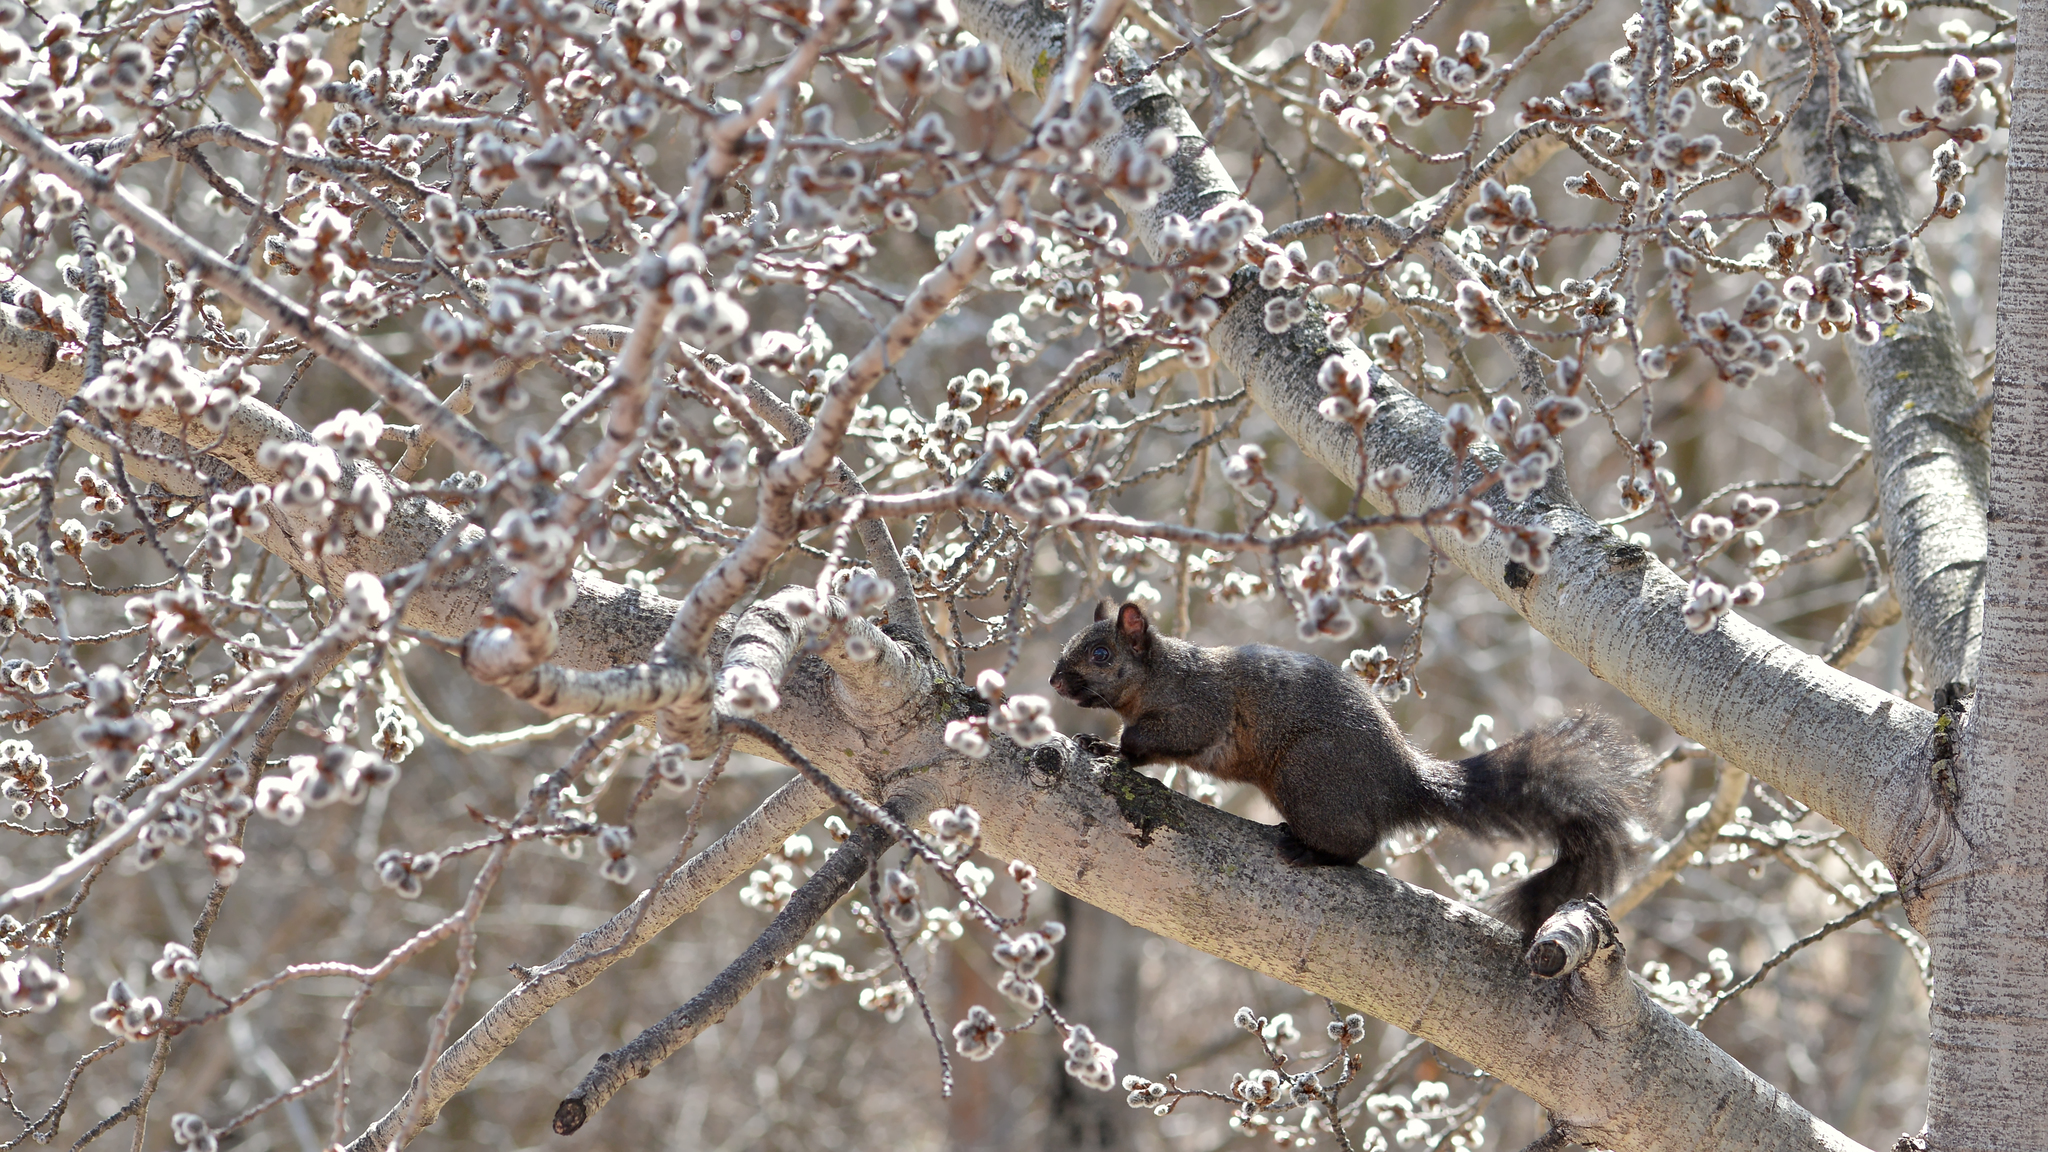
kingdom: Animalia
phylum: Chordata
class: Mammalia
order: Rodentia
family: Sciuridae
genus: Sciurus
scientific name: Sciurus carolinensis
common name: Eastern gray squirrel
